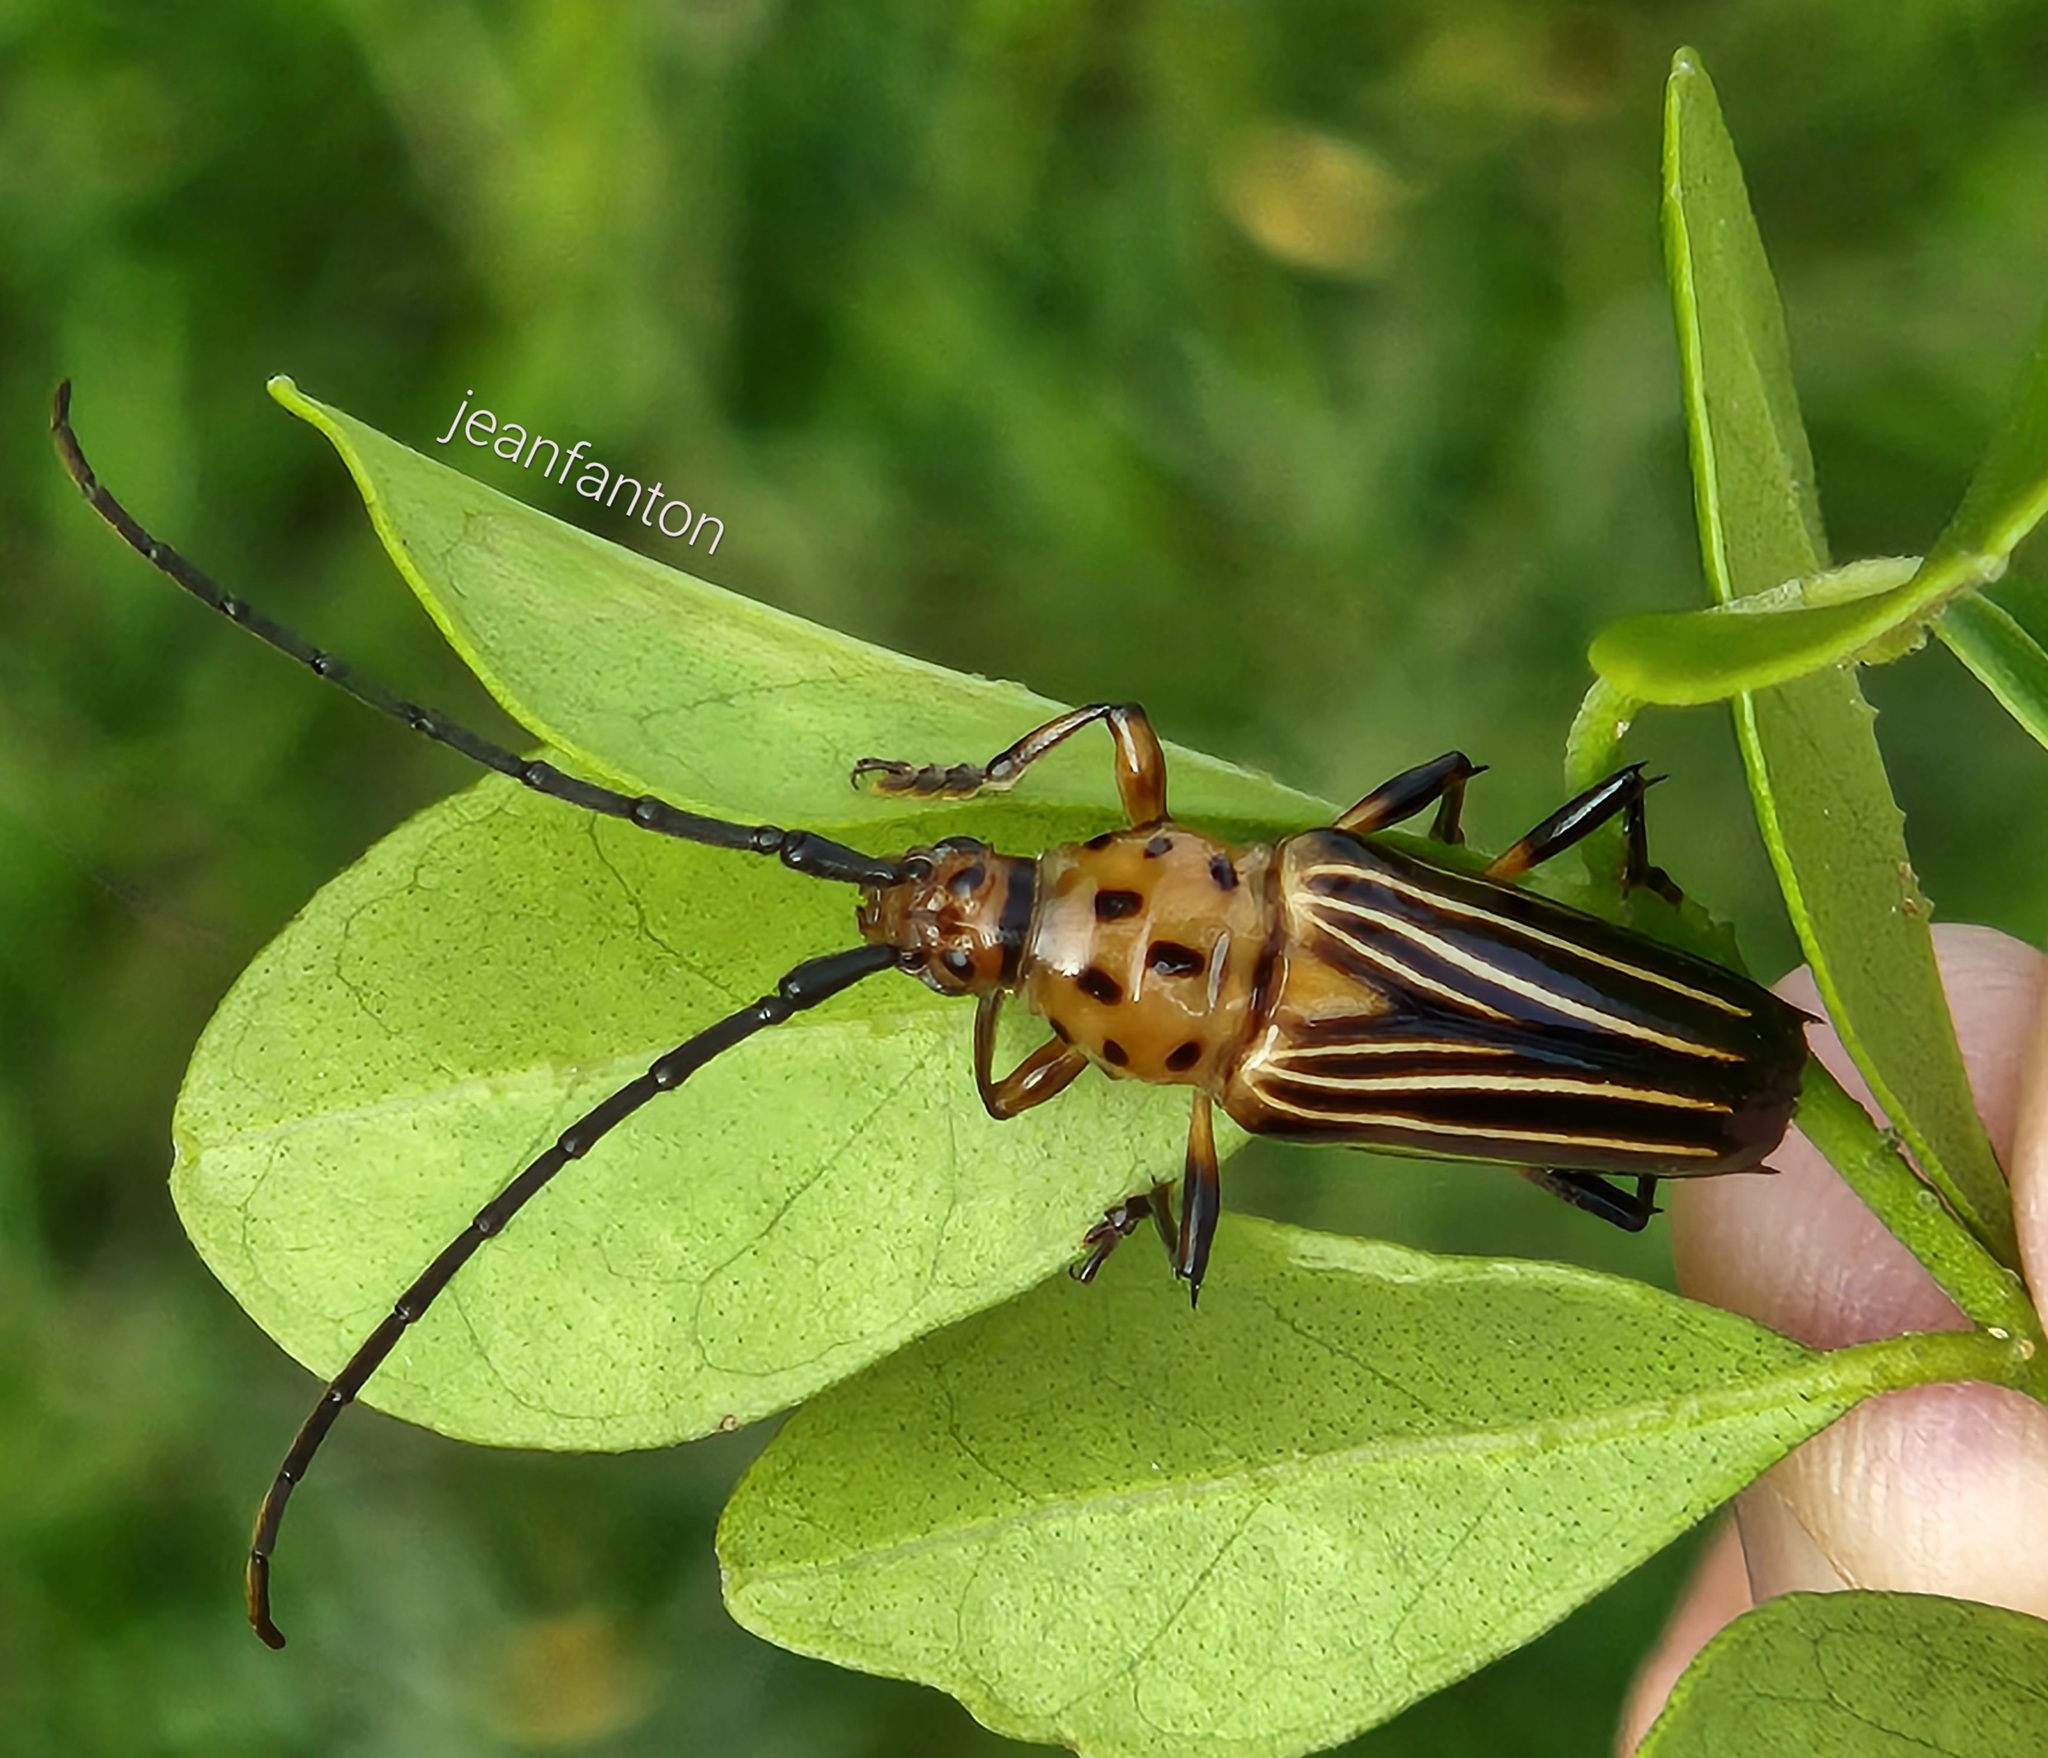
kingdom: Animalia
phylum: Arthropoda
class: Insecta
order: Coleoptera
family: Cerambycidae
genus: Oxymerus
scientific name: Oxymerus aculeatus
